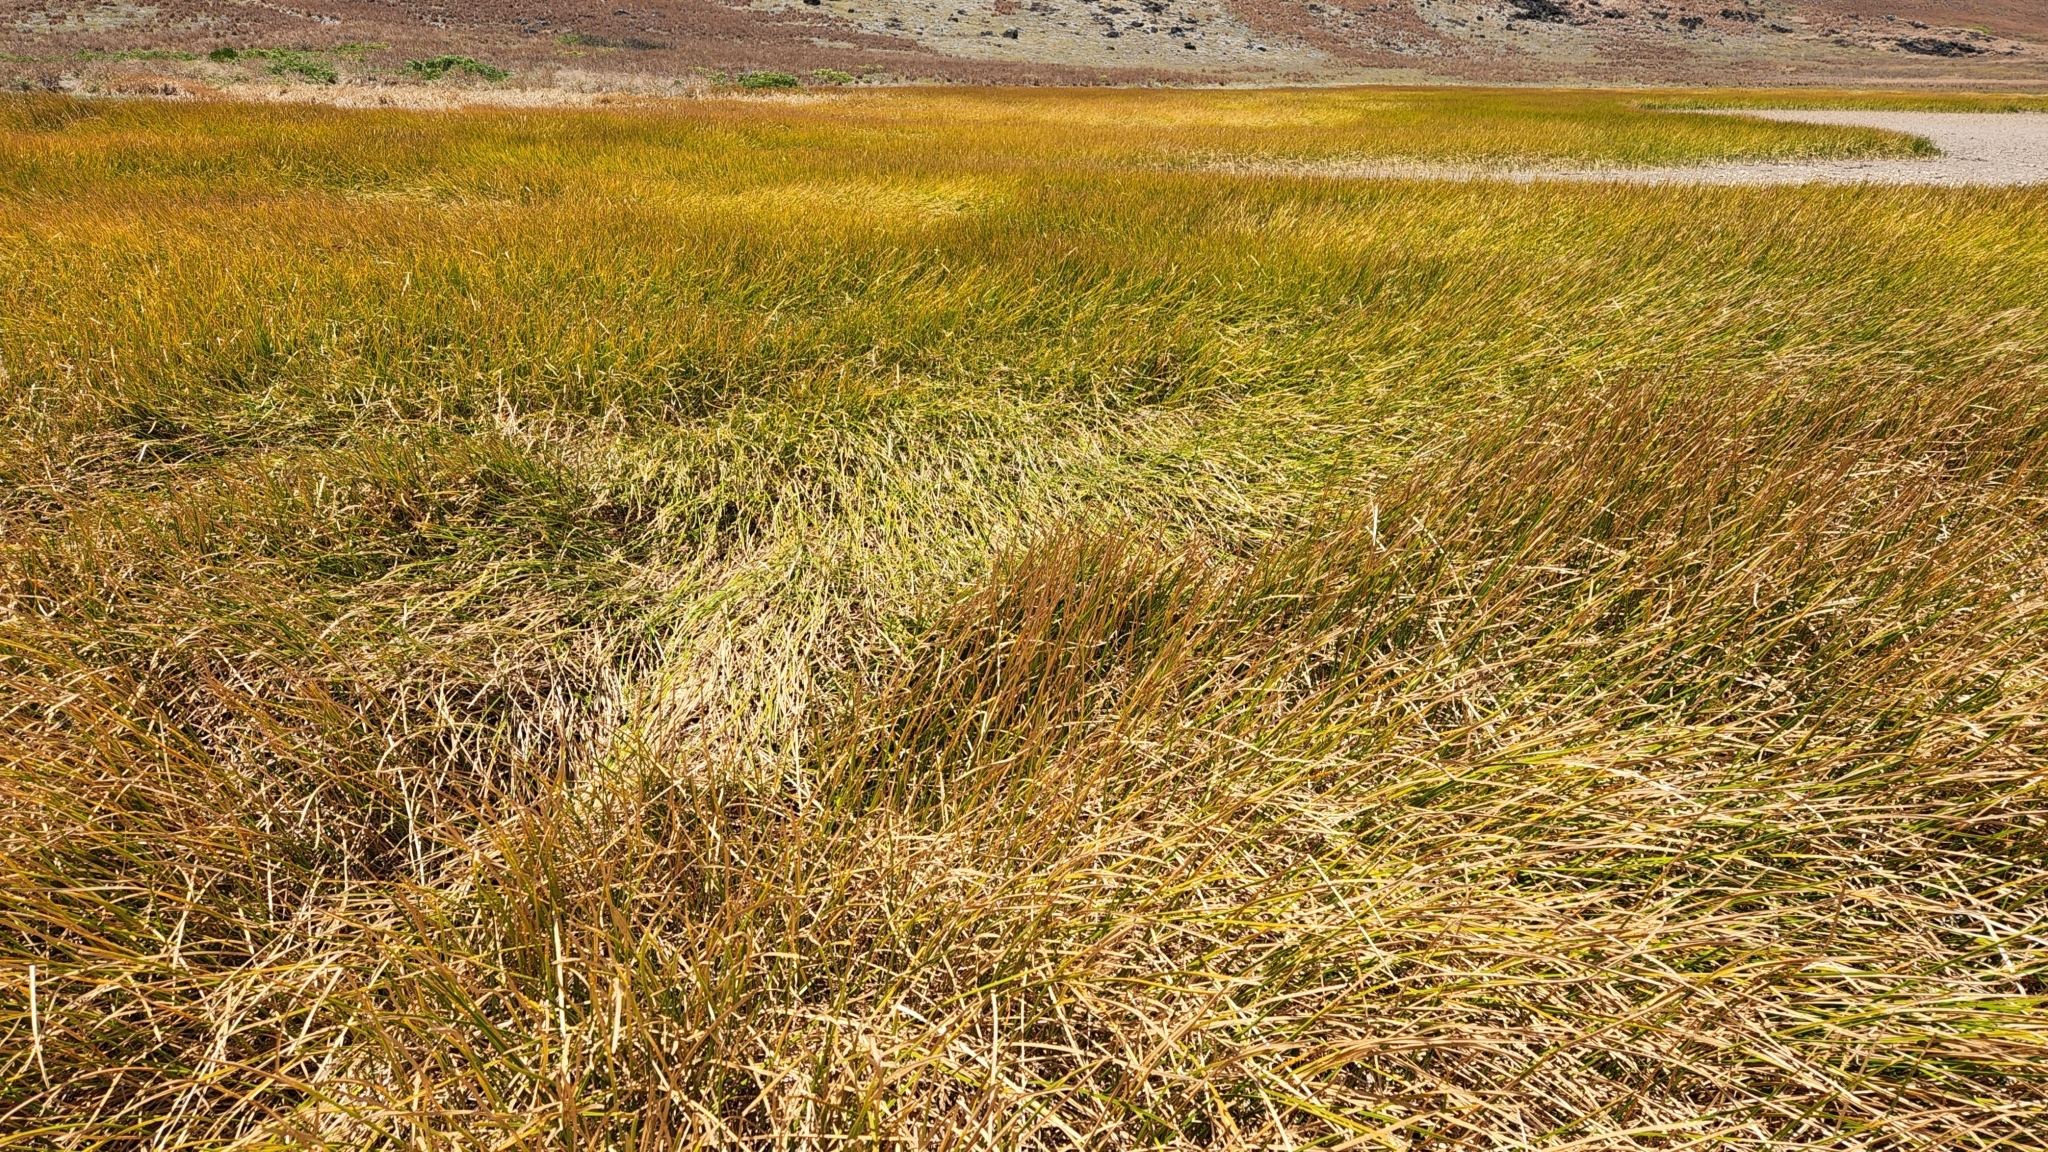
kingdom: Plantae
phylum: Tracheophyta
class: Liliopsida
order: Poales
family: Poaceae
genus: Cenchrus
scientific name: Cenchrus ciliaris
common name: Buffelgrass
